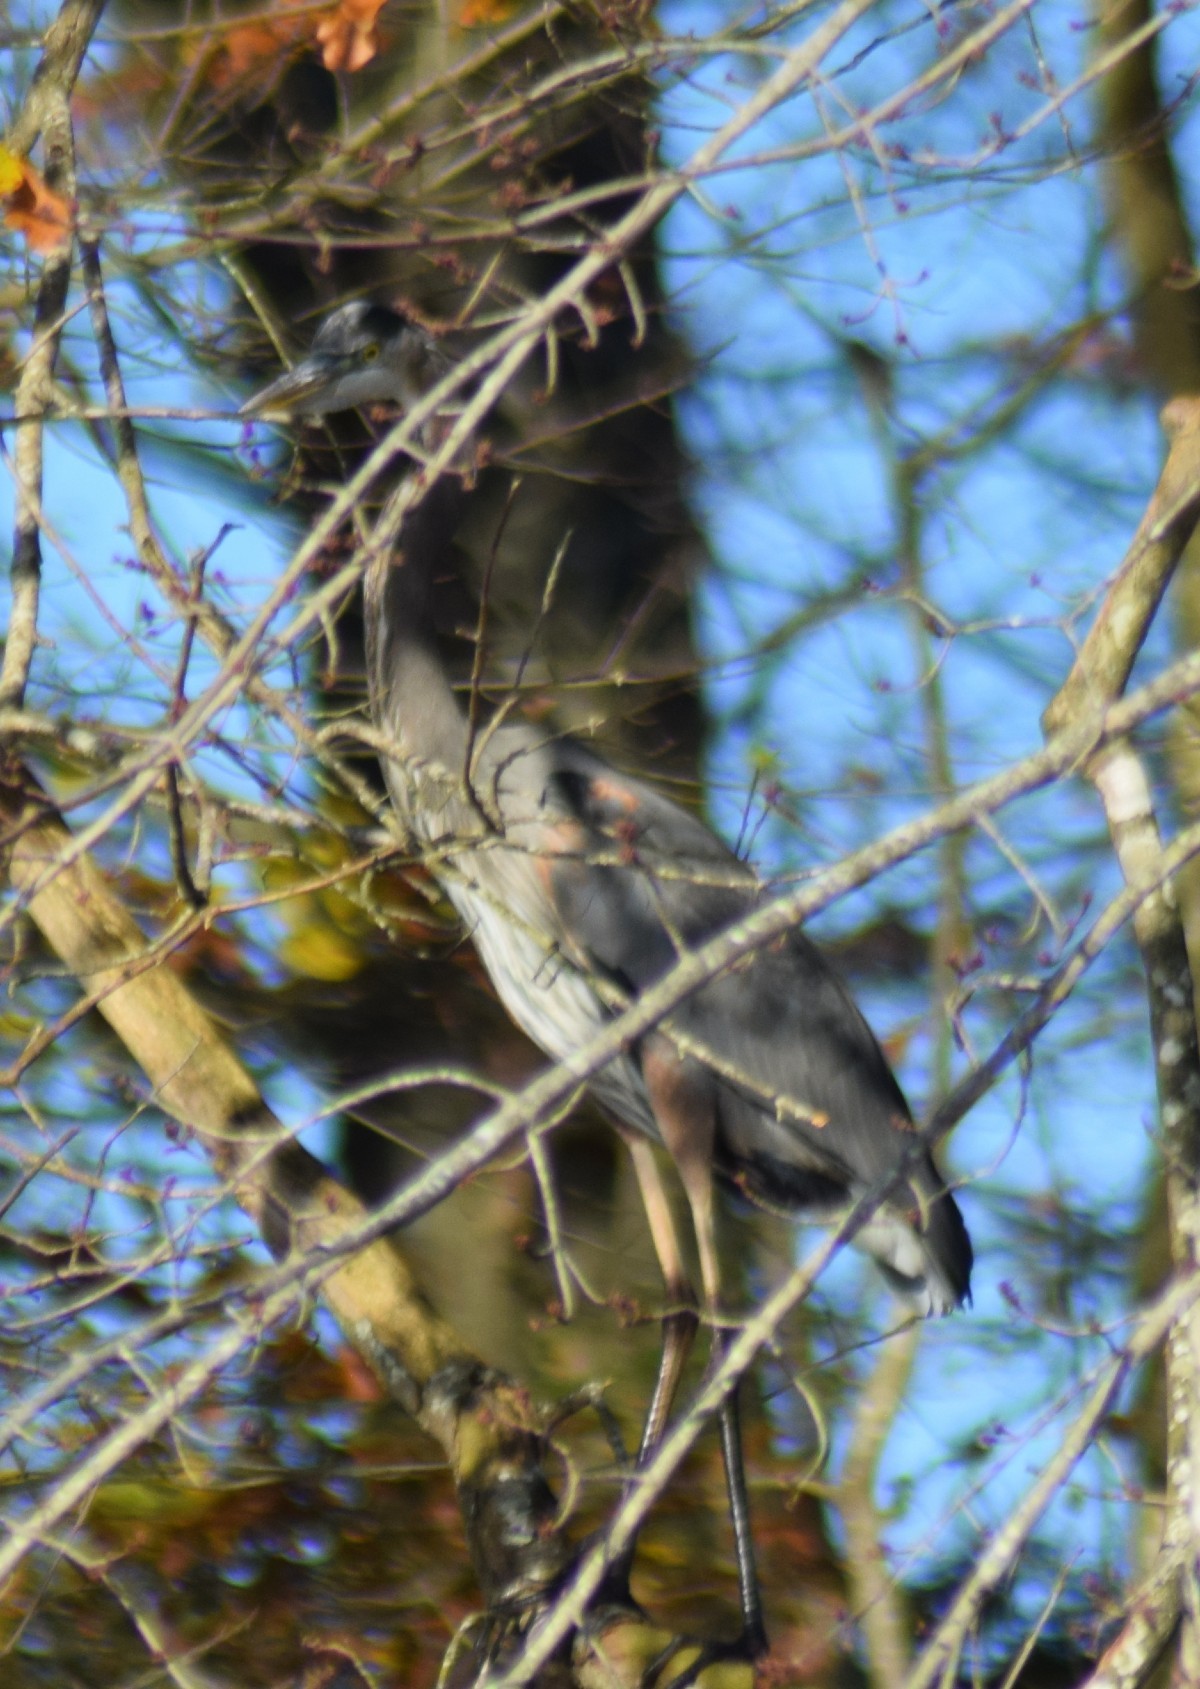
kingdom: Animalia
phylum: Chordata
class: Aves
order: Pelecaniformes
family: Ardeidae
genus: Ardea
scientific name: Ardea herodias
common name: Great blue heron
